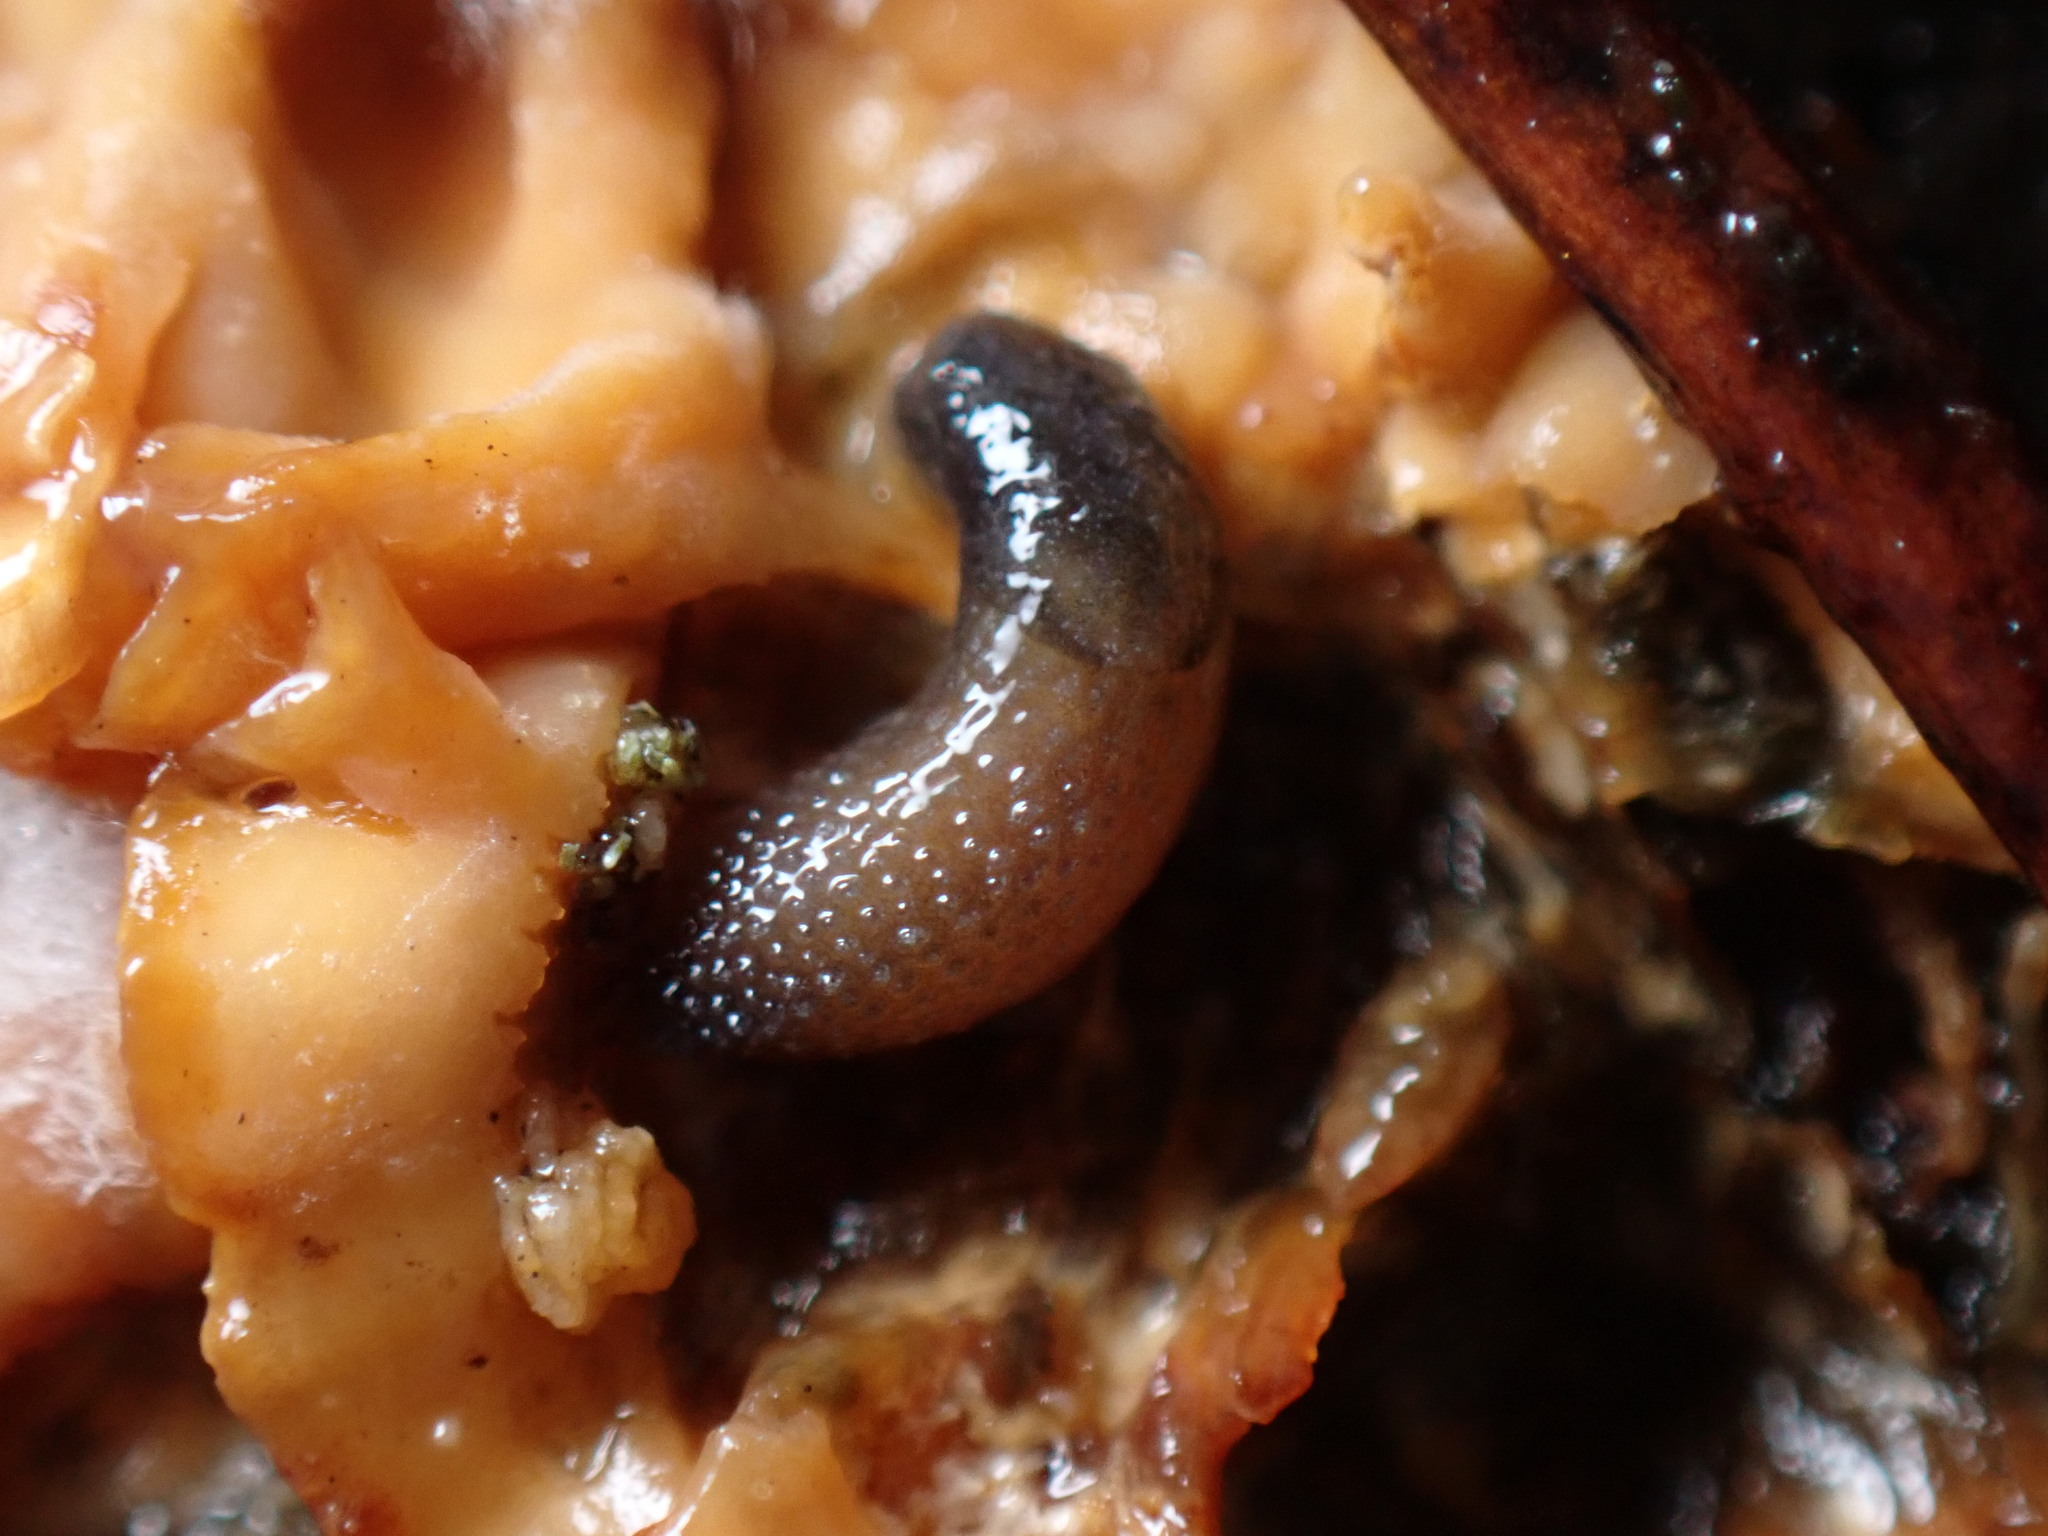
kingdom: Animalia
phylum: Mollusca
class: Gastropoda
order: Stylommatophora
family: Arionidae
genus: Arion
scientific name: Arion intermedius
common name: Hedgehog slug
